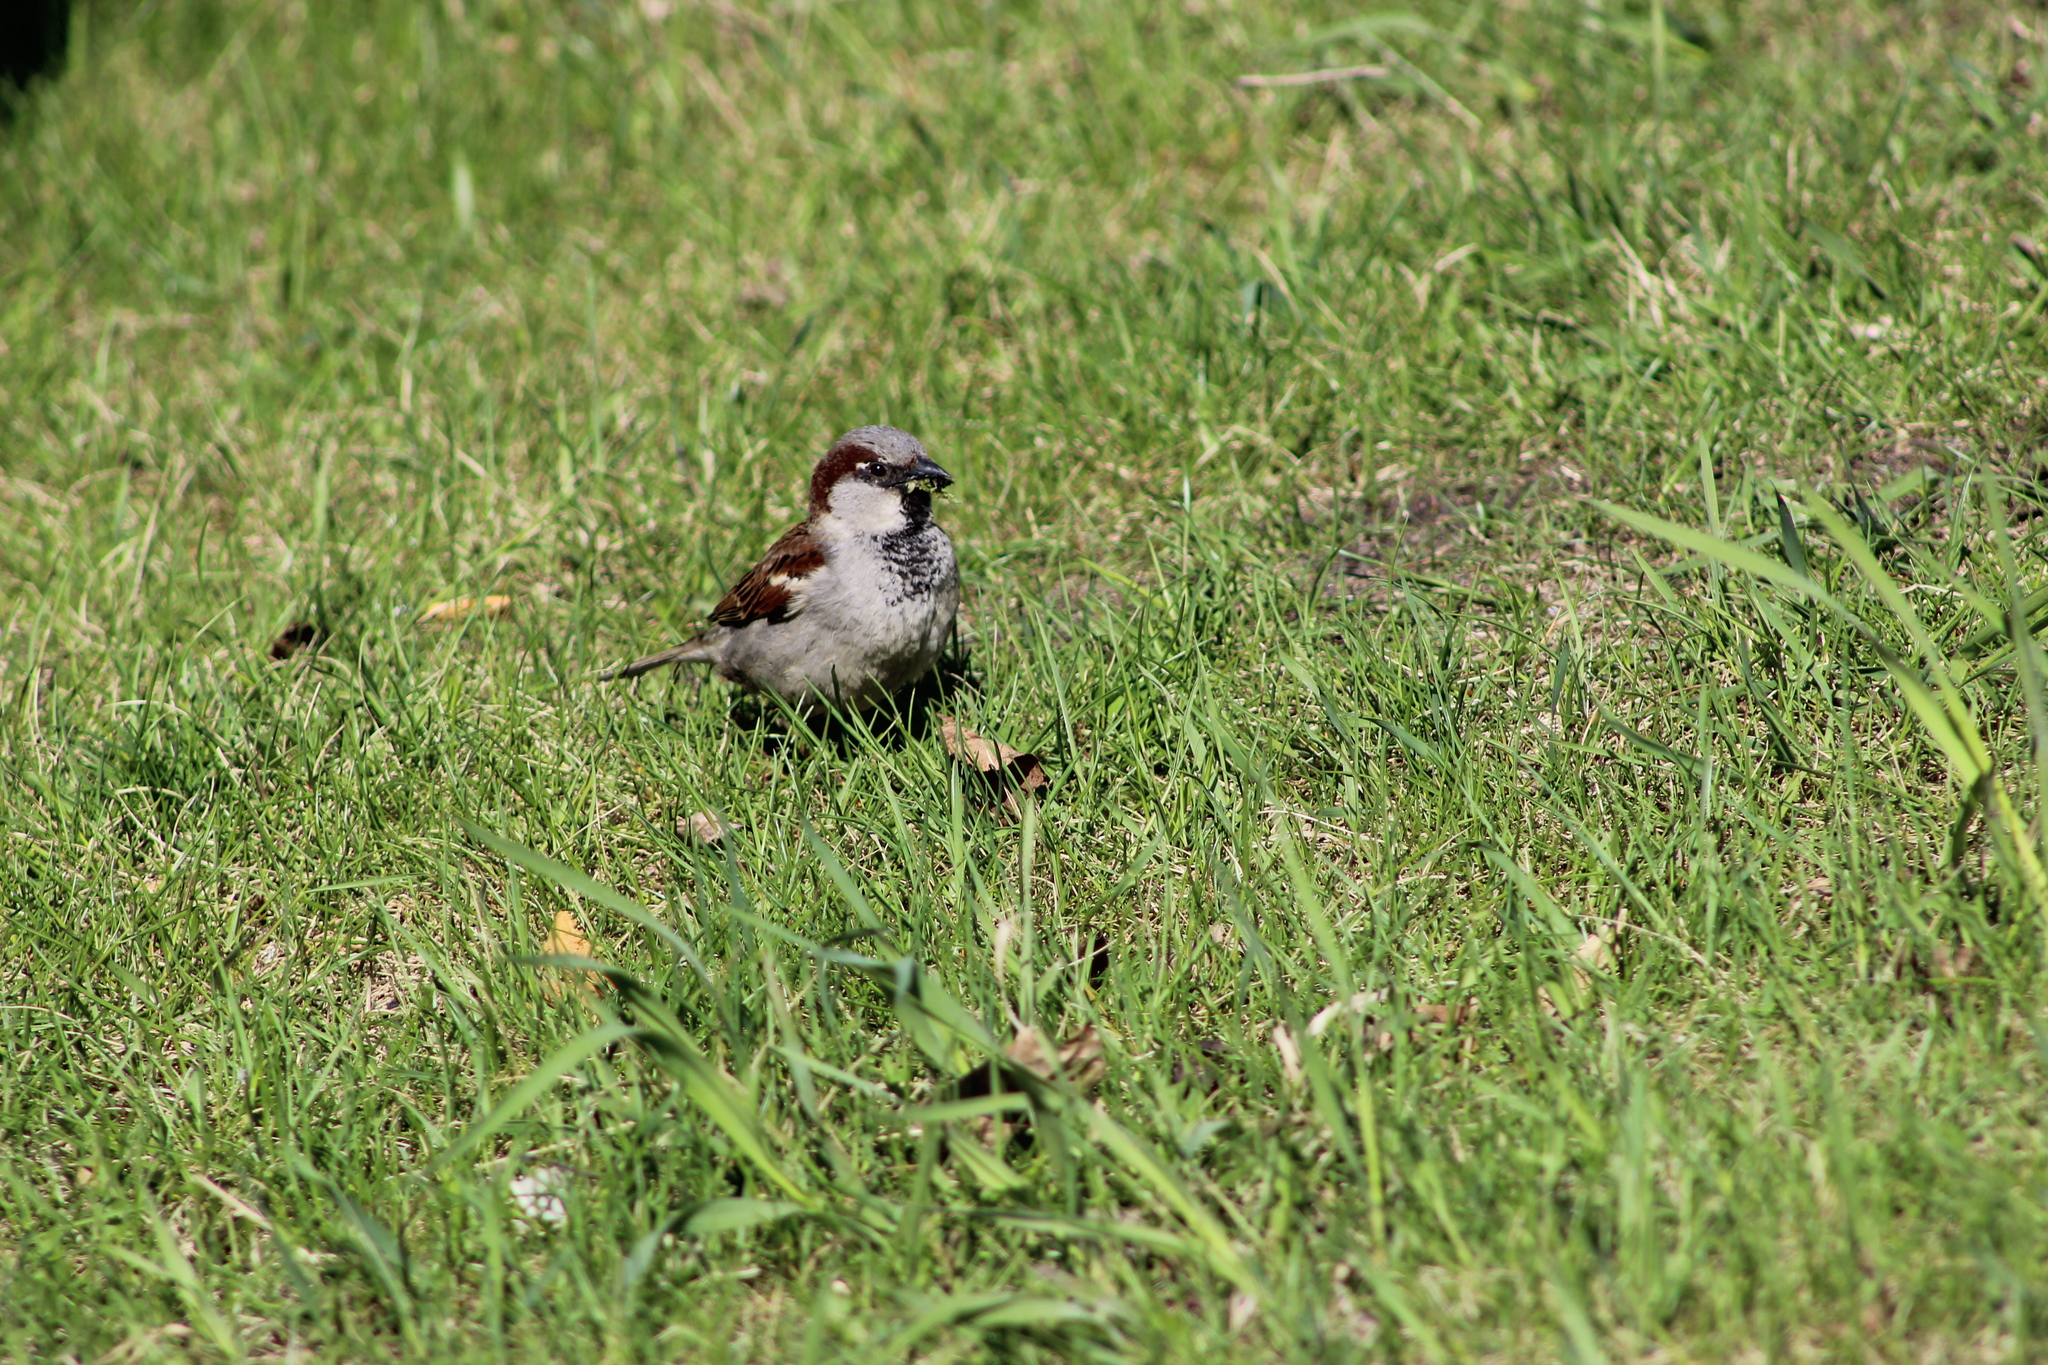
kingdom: Animalia
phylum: Chordata
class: Aves
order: Passeriformes
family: Passeridae
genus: Passer
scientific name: Passer domesticus
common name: House sparrow
